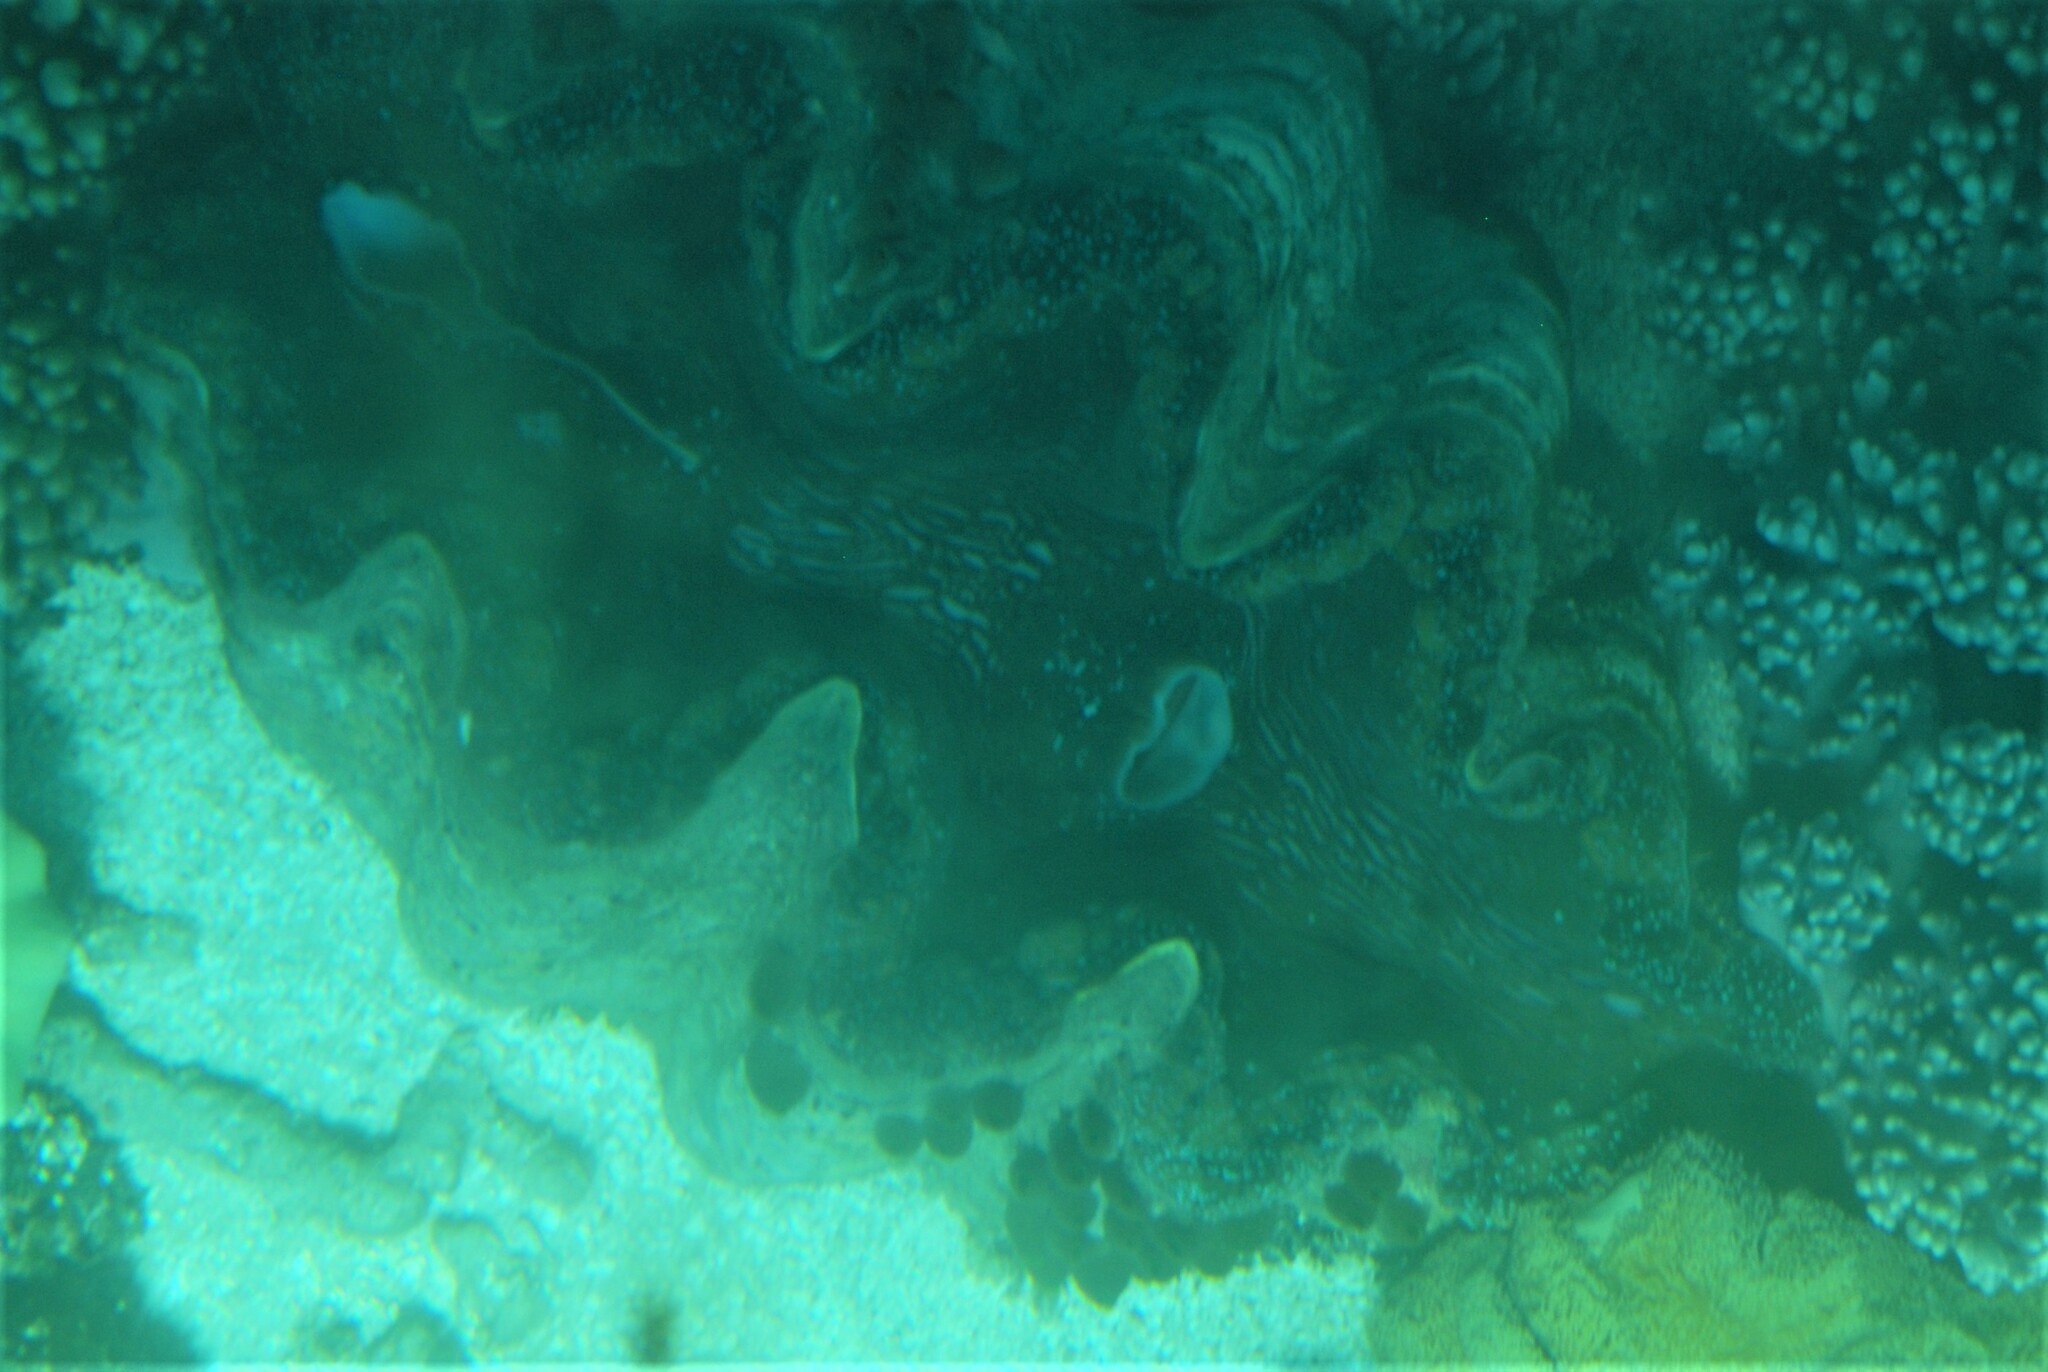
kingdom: Animalia
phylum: Mollusca
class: Bivalvia
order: Cardiida
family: Cardiidae
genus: Tridacna
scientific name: Tridacna gigas
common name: Giant clam
